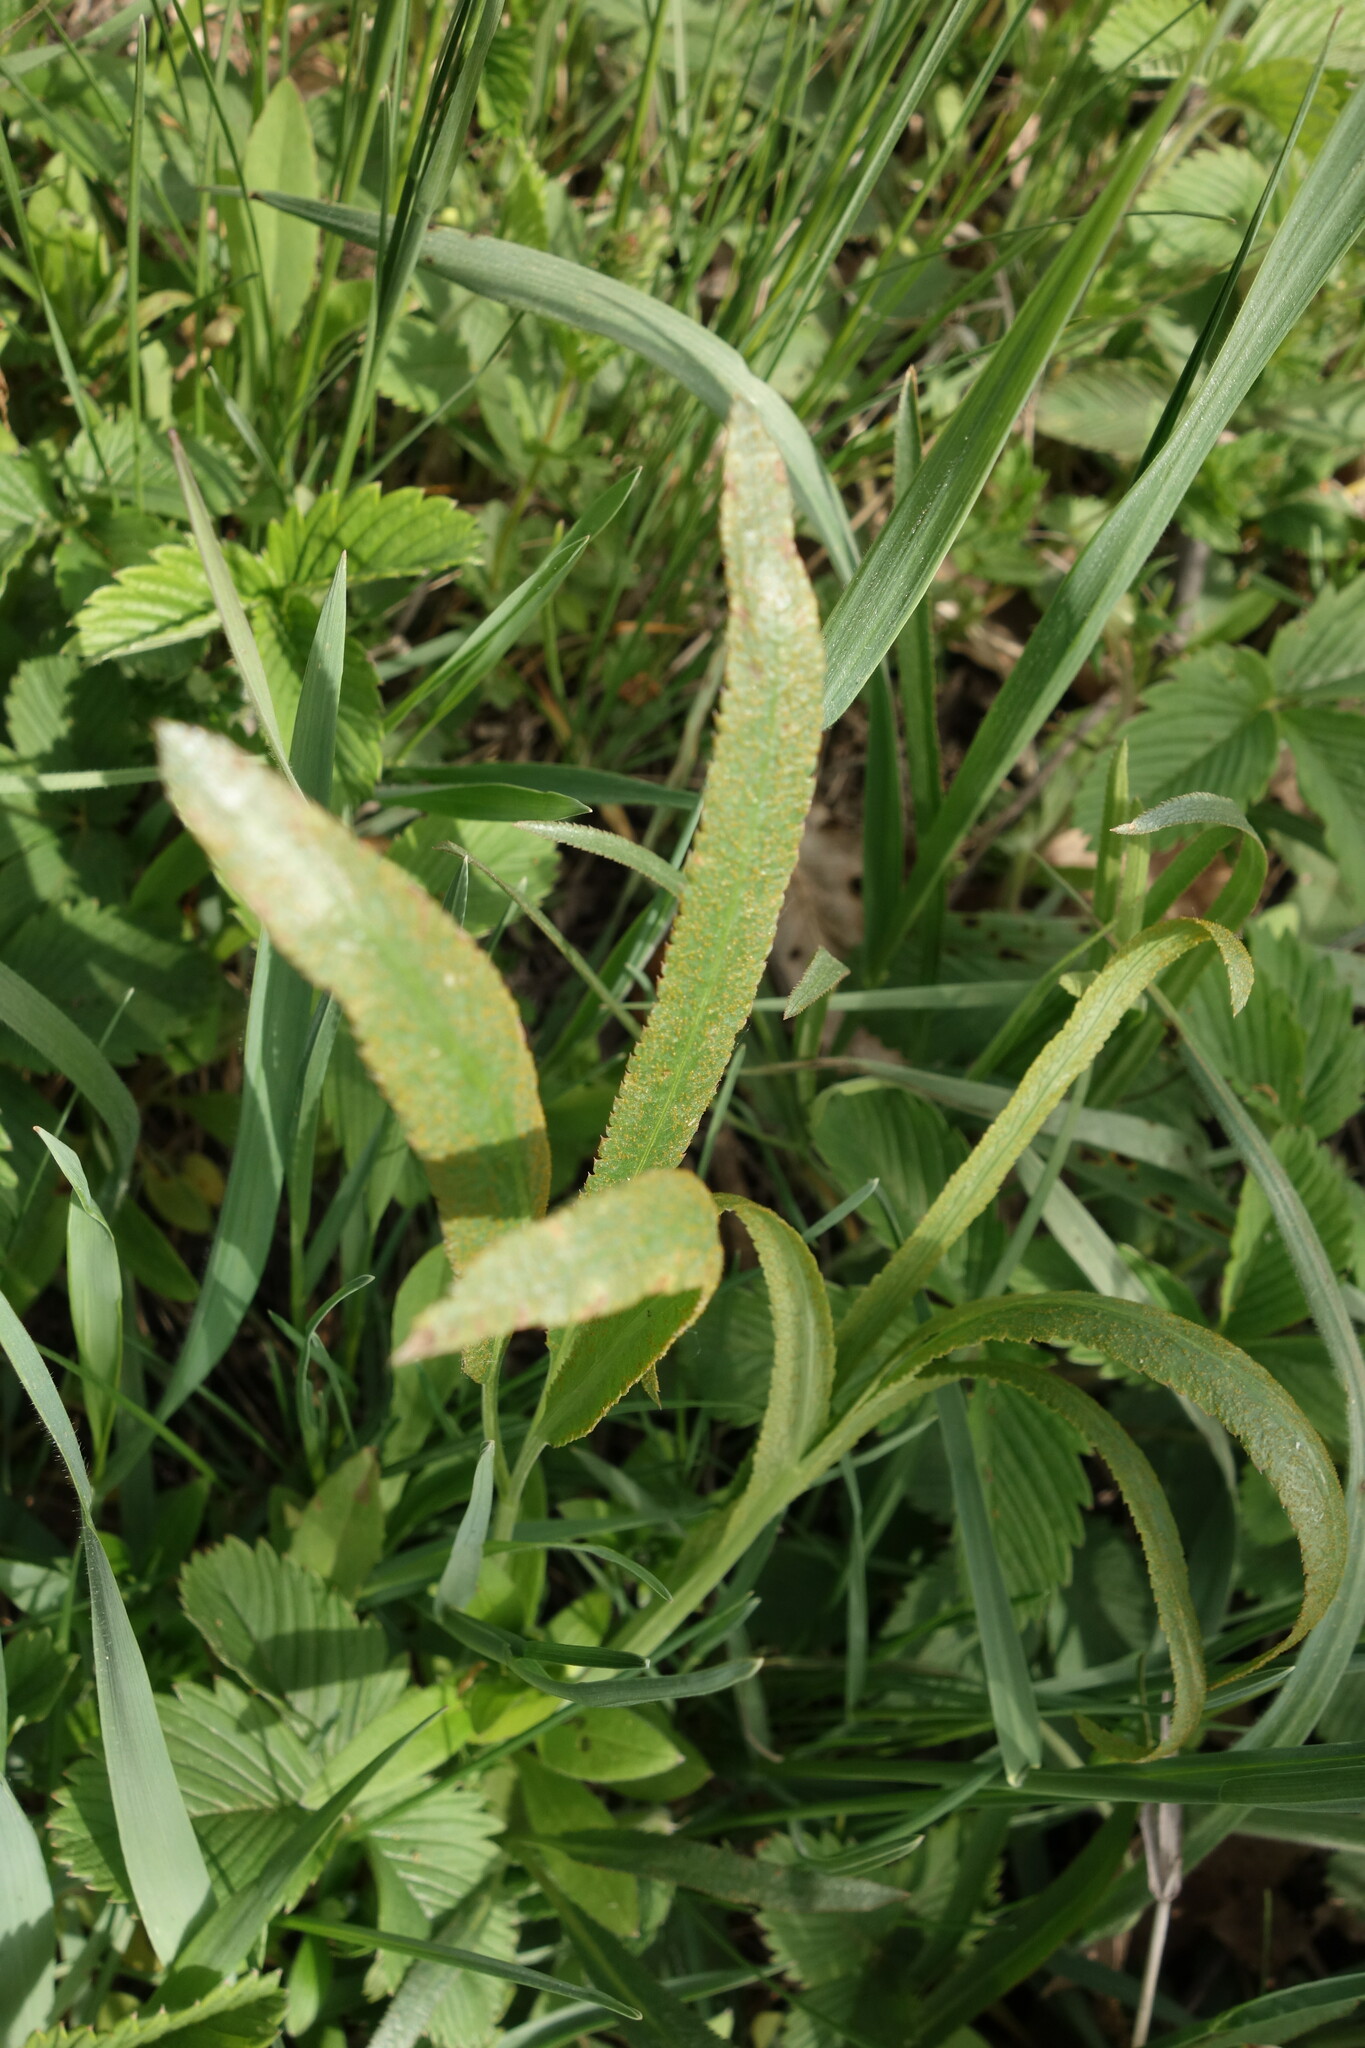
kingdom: Fungi
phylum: Basidiomycota
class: Pucciniomycetes
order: Pucciniales
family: Pucciniaceae
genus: Puccinia
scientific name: Puccinia sii-falcariae
